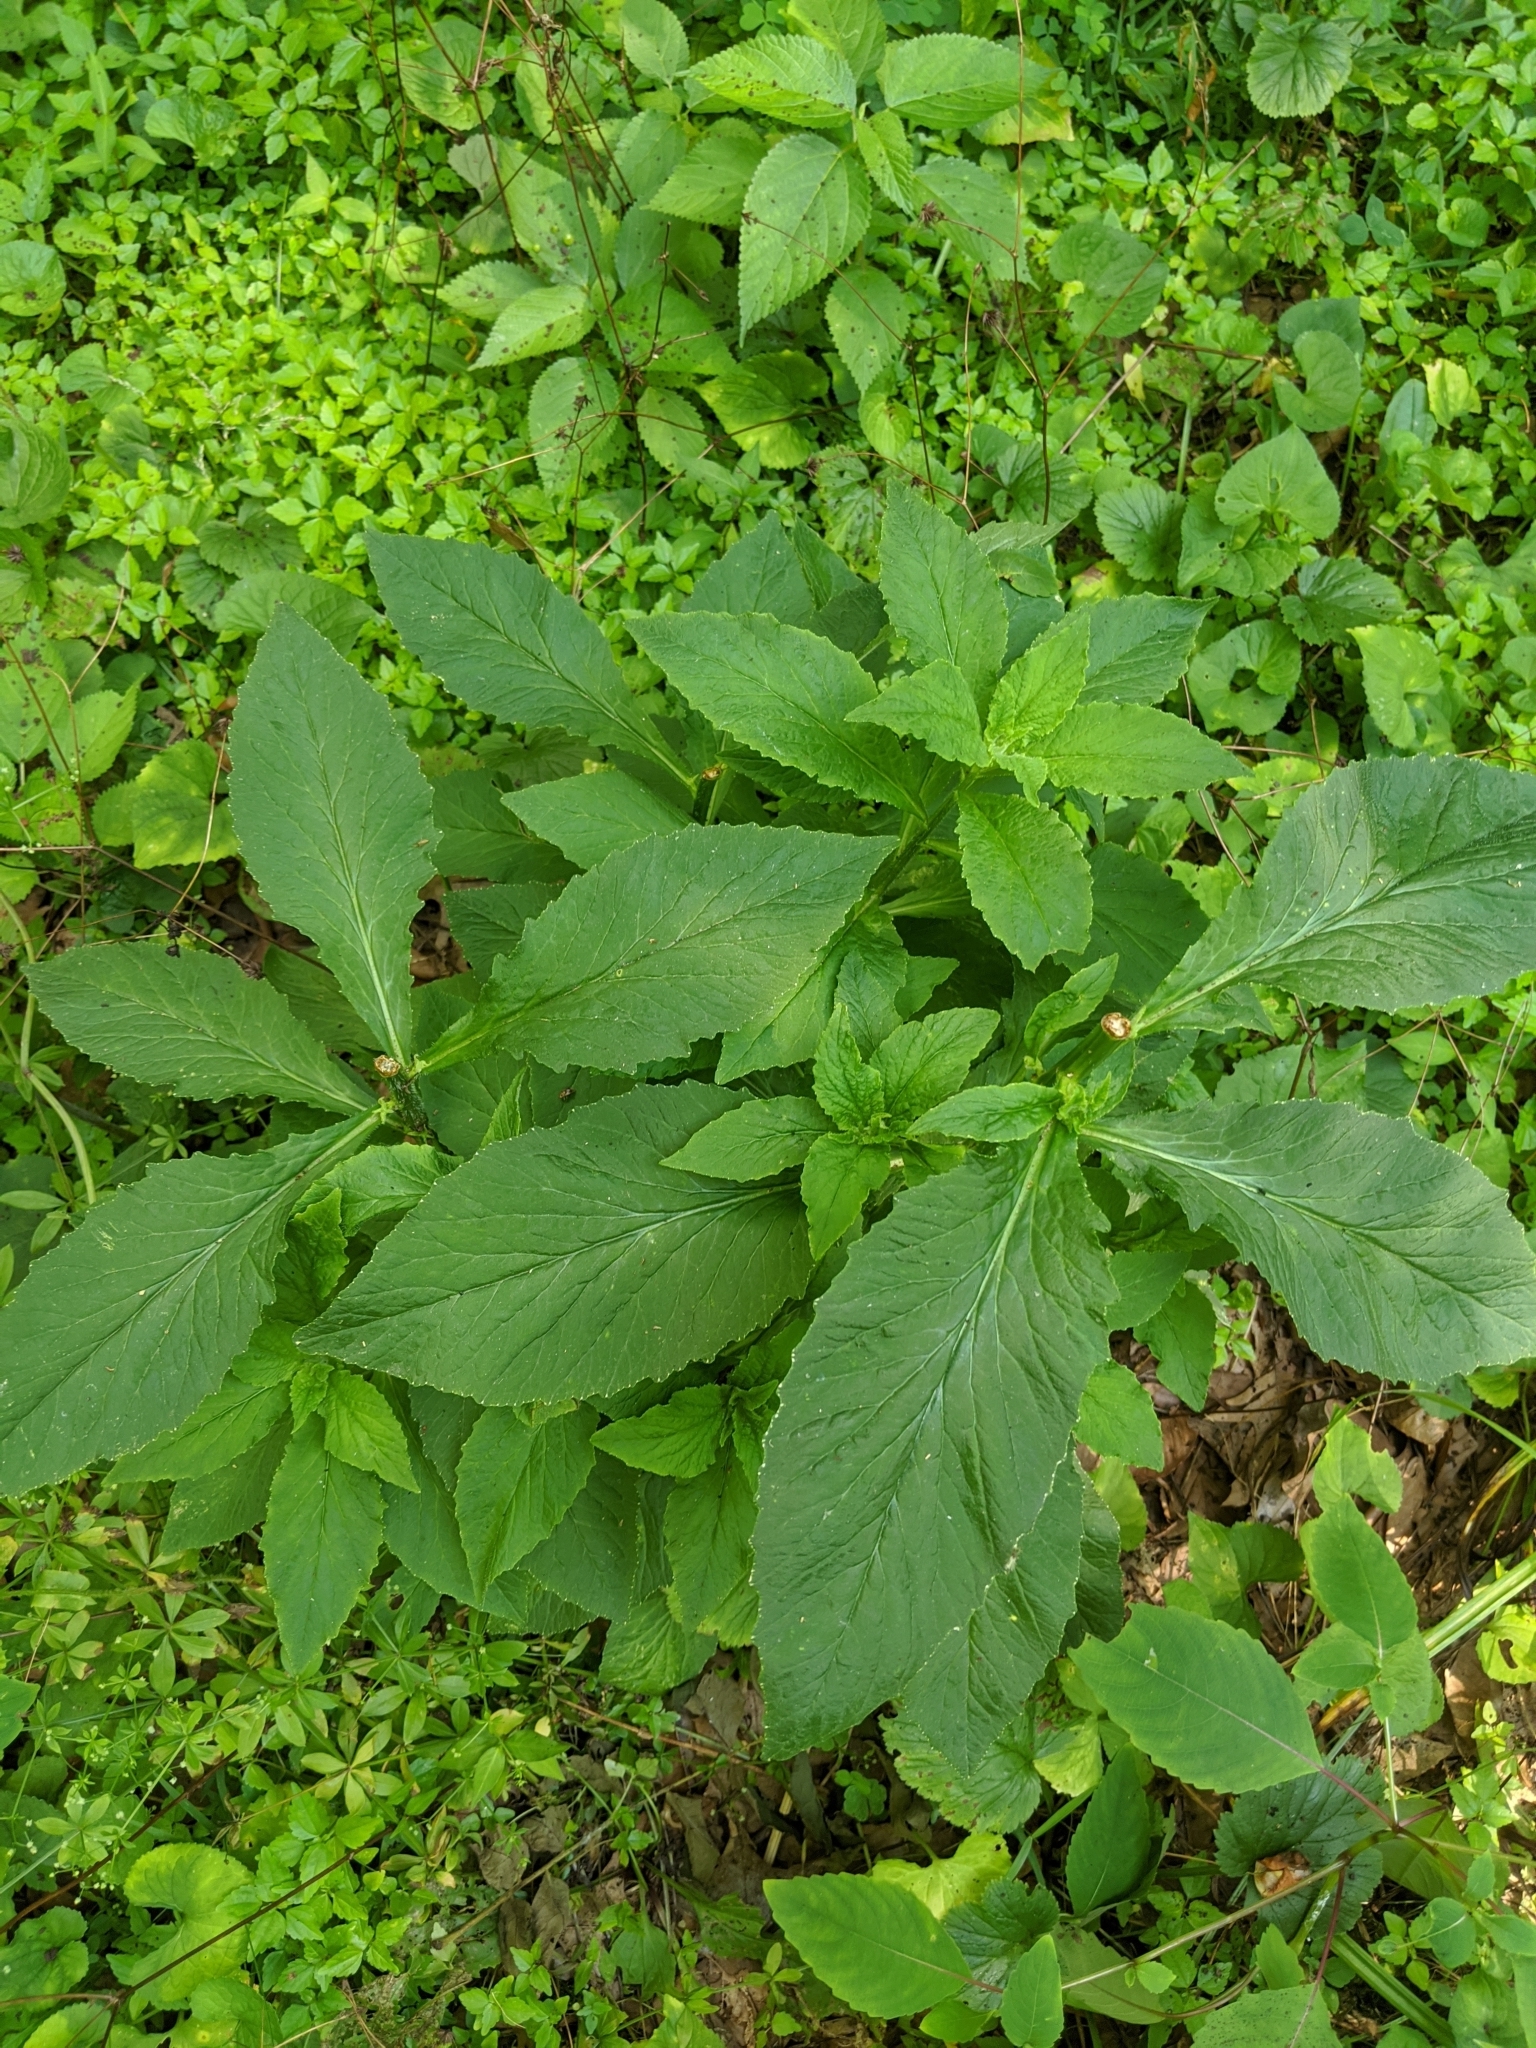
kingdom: Animalia
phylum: Chordata
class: Mammalia
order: Artiodactyla
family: Cervidae
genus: Odocoileus
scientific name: Odocoileus virginianus
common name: White-tailed deer
